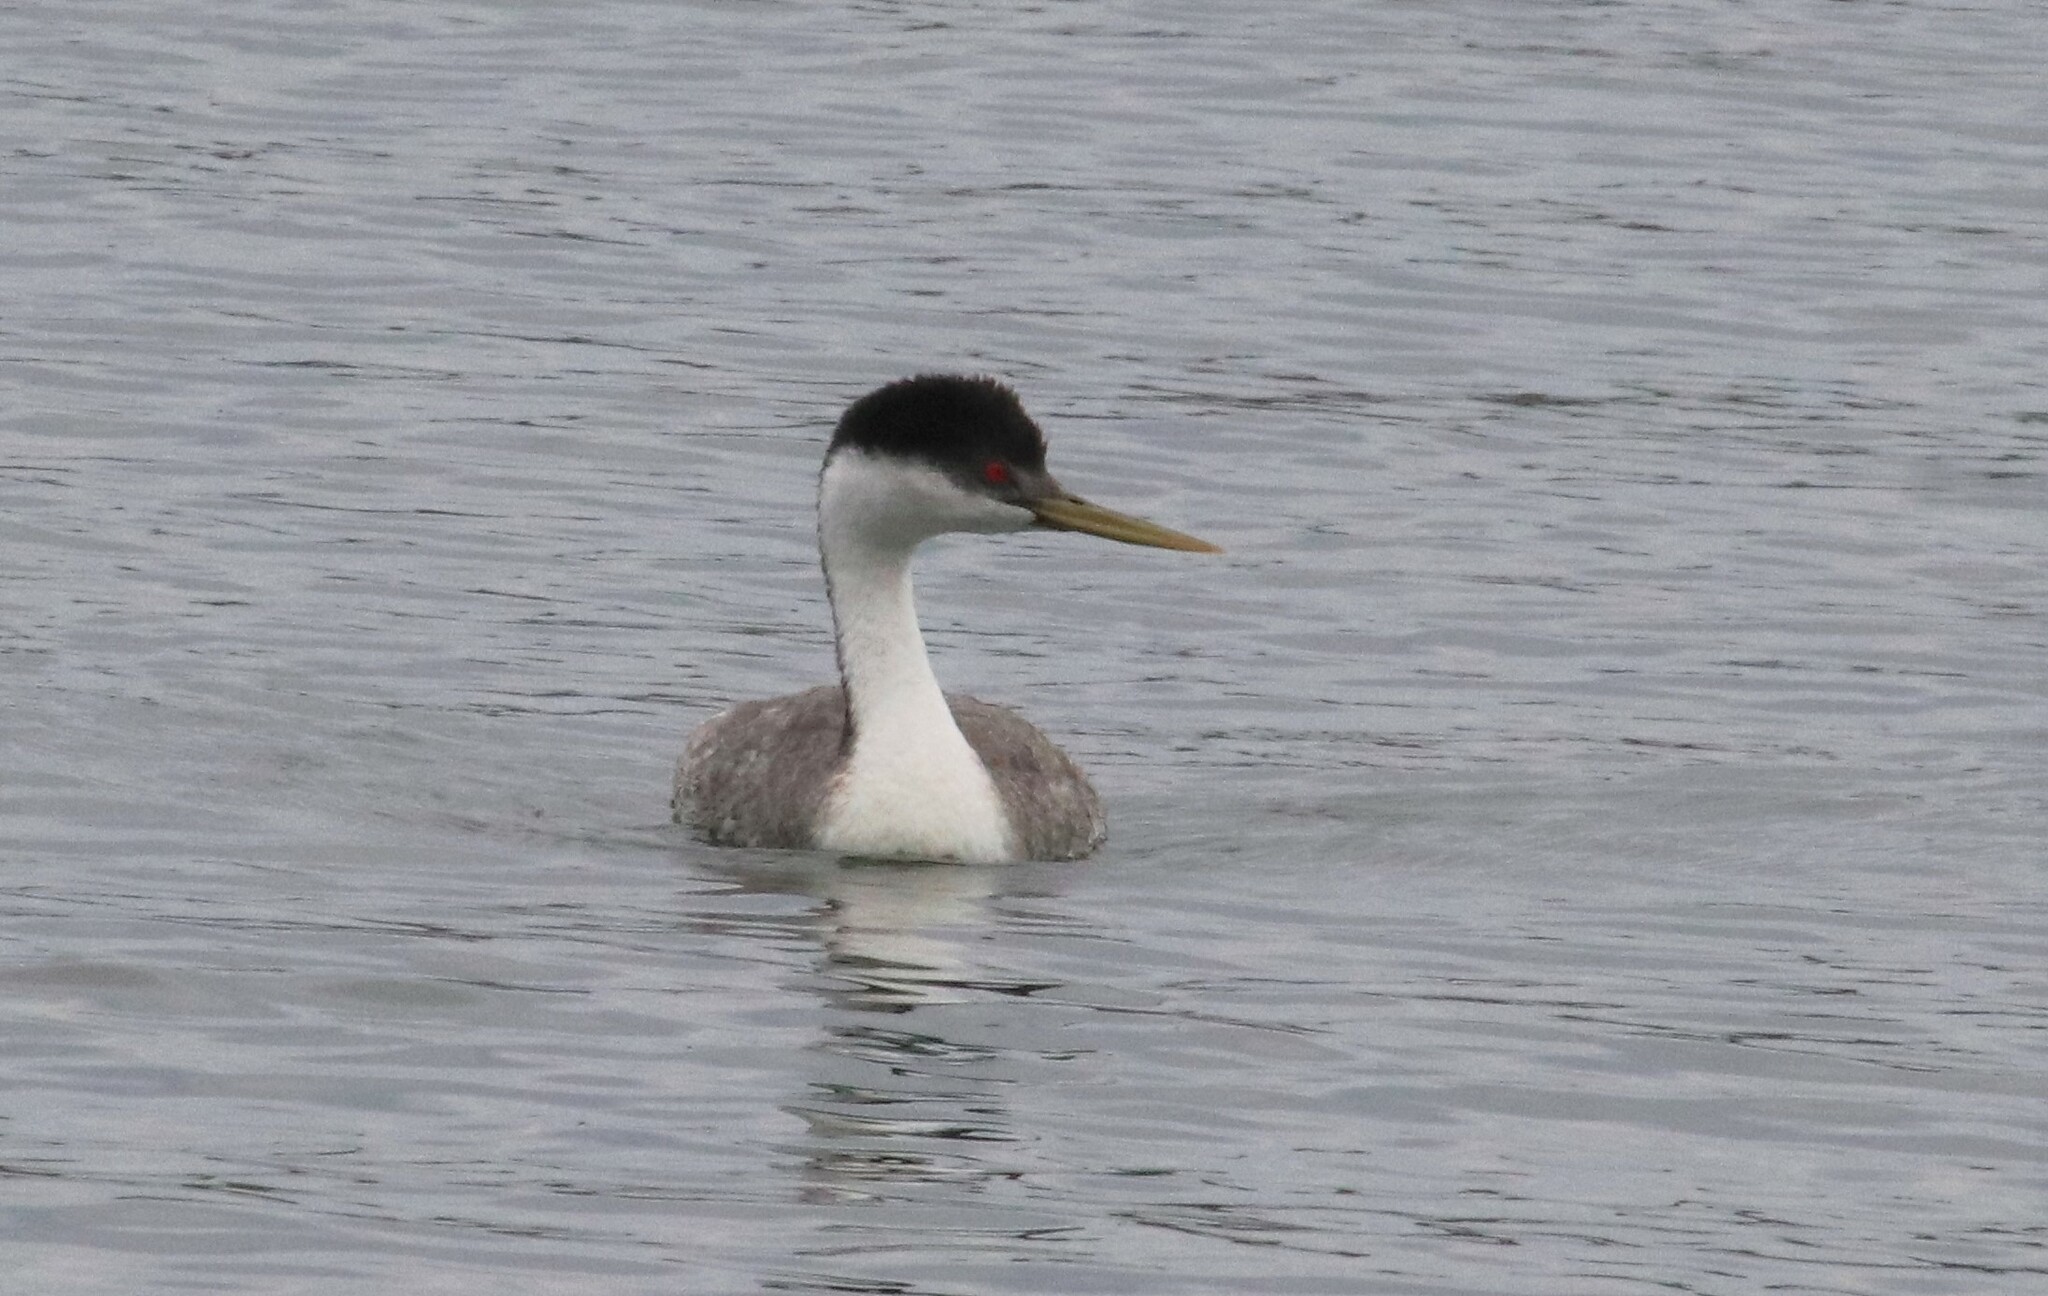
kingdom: Animalia
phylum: Chordata
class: Aves
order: Podicipediformes
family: Podicipedidae
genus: Aechmophorus
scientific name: Aechmophorus occidentalis
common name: Western grebe
